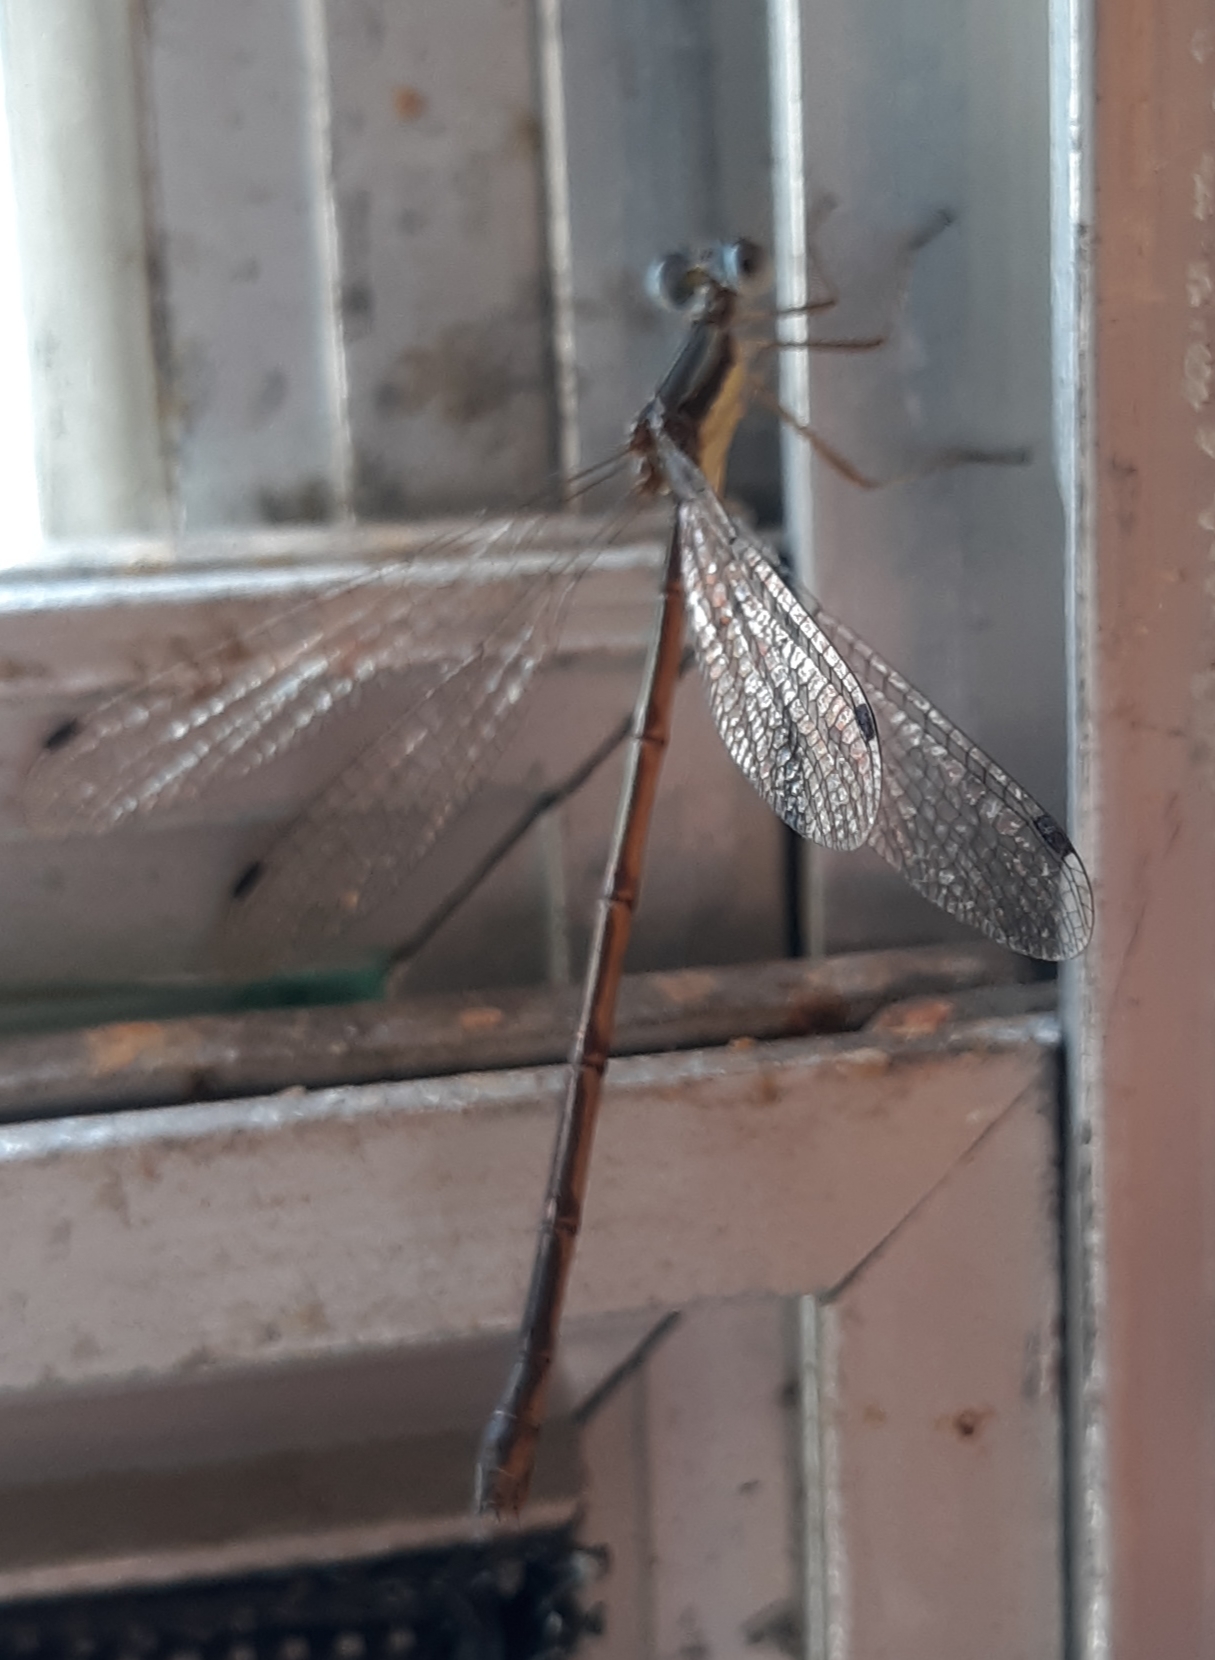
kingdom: Animalia
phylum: Arthropoda
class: Insecta
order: Odonata
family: Lestidae
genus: Lestes
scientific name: Lestes rectangularis
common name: Slender spreadwing
